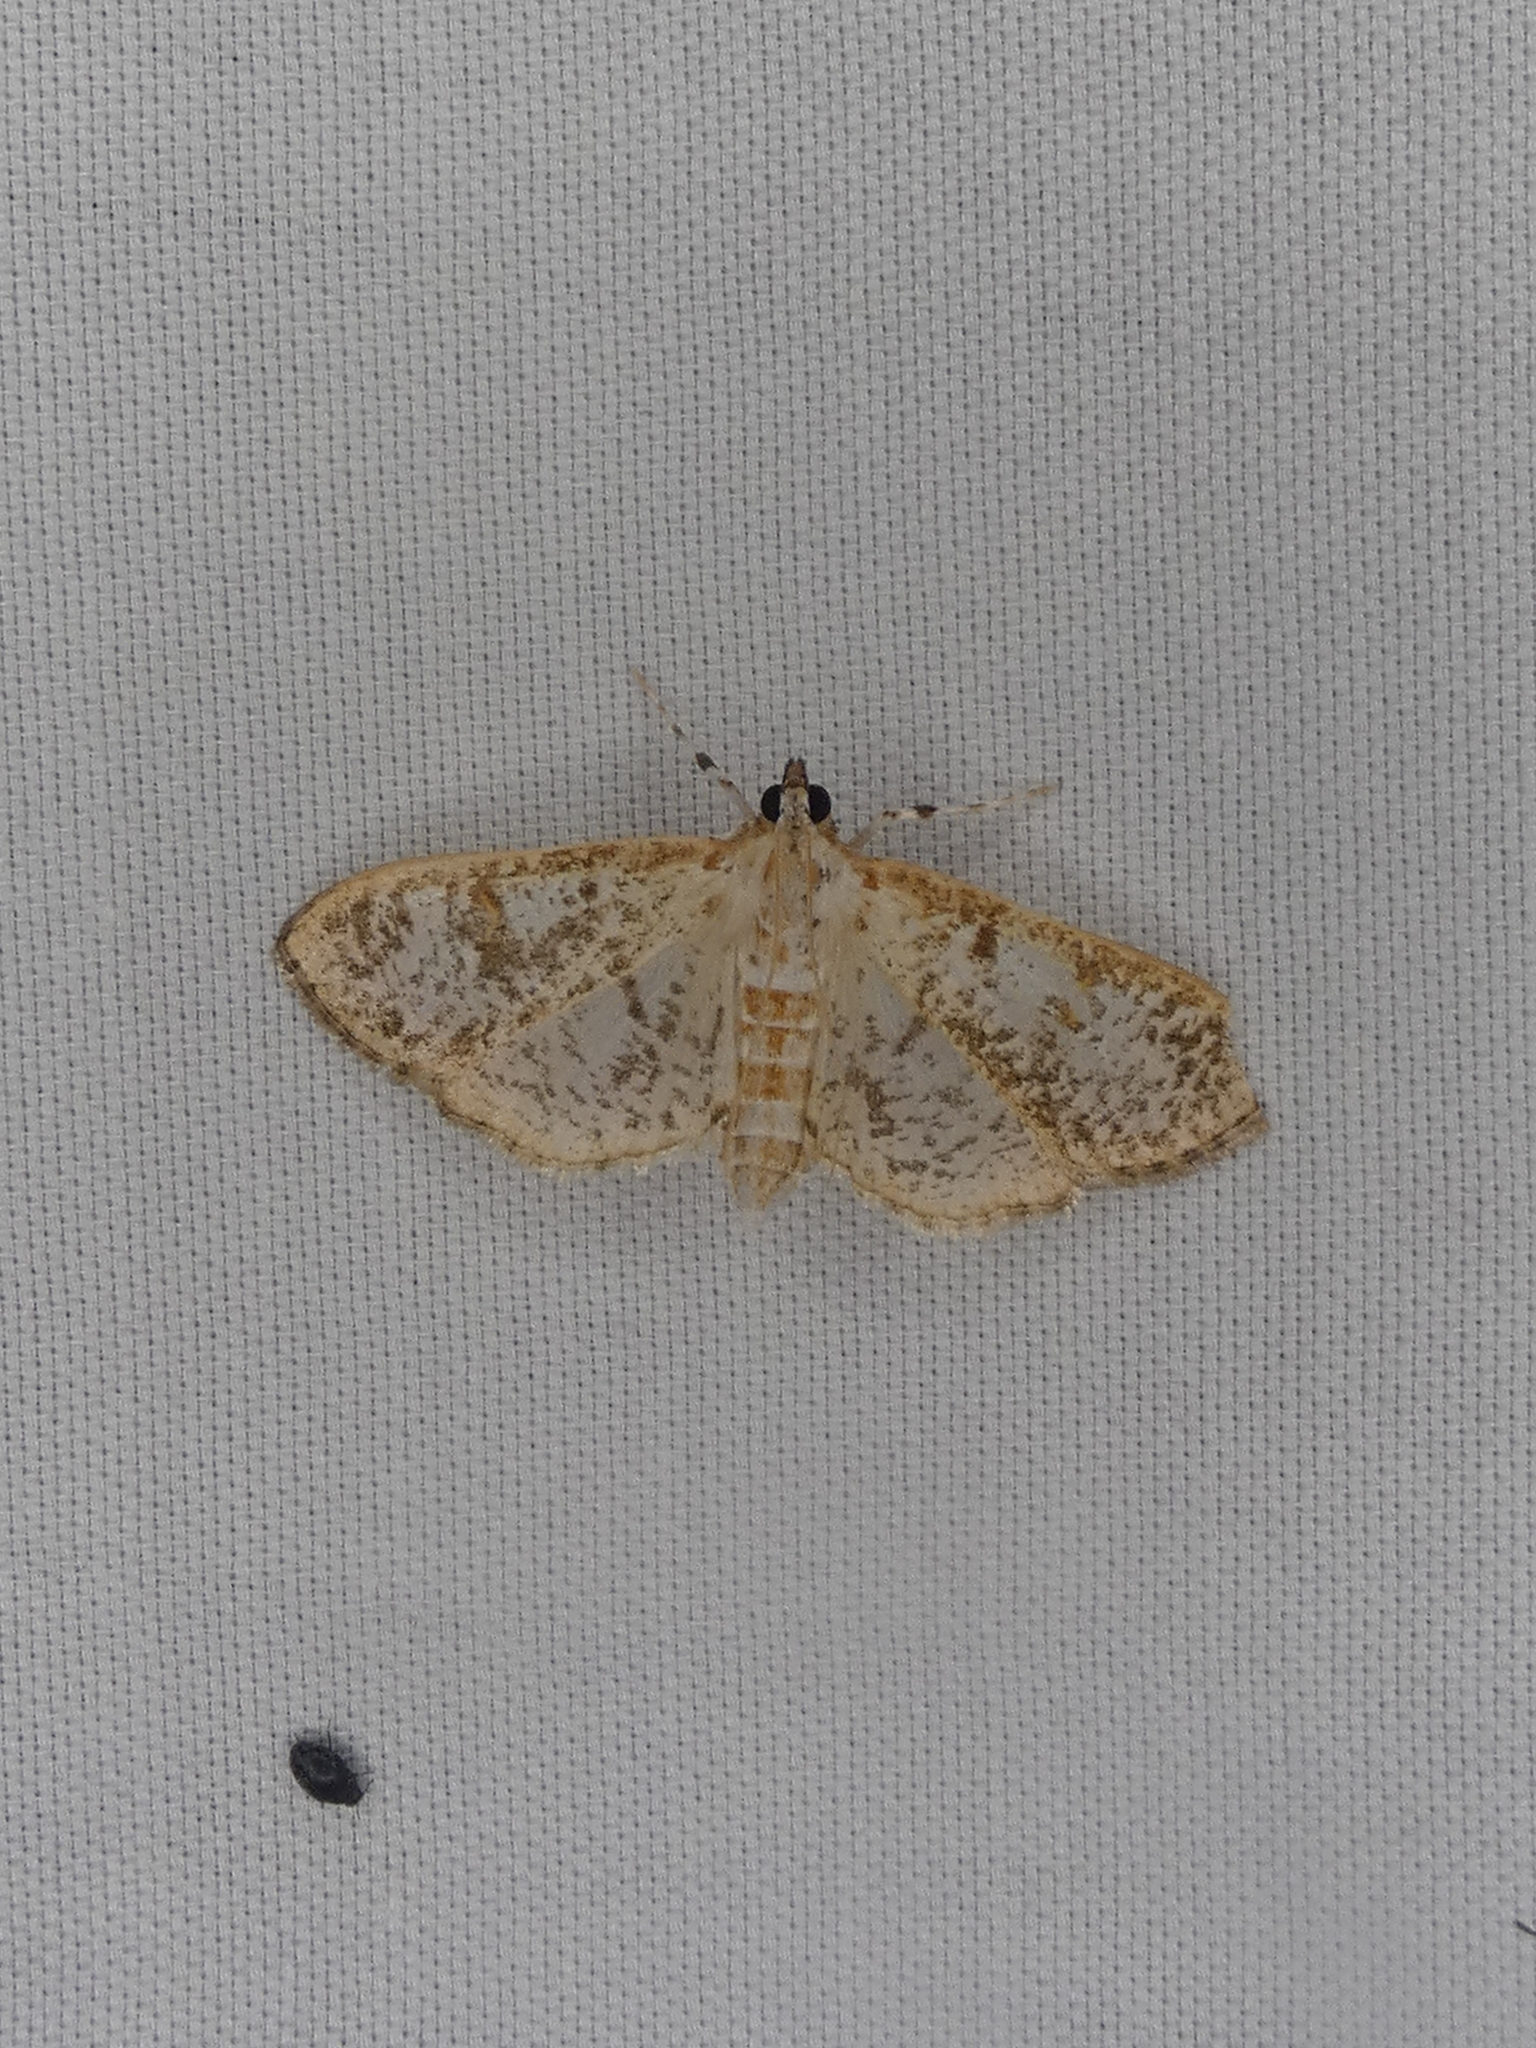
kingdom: Animalia
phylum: Arthropoda
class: Insecta
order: Lepidoptera
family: Crambidae
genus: Palpita
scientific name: Palpita freemanalis
